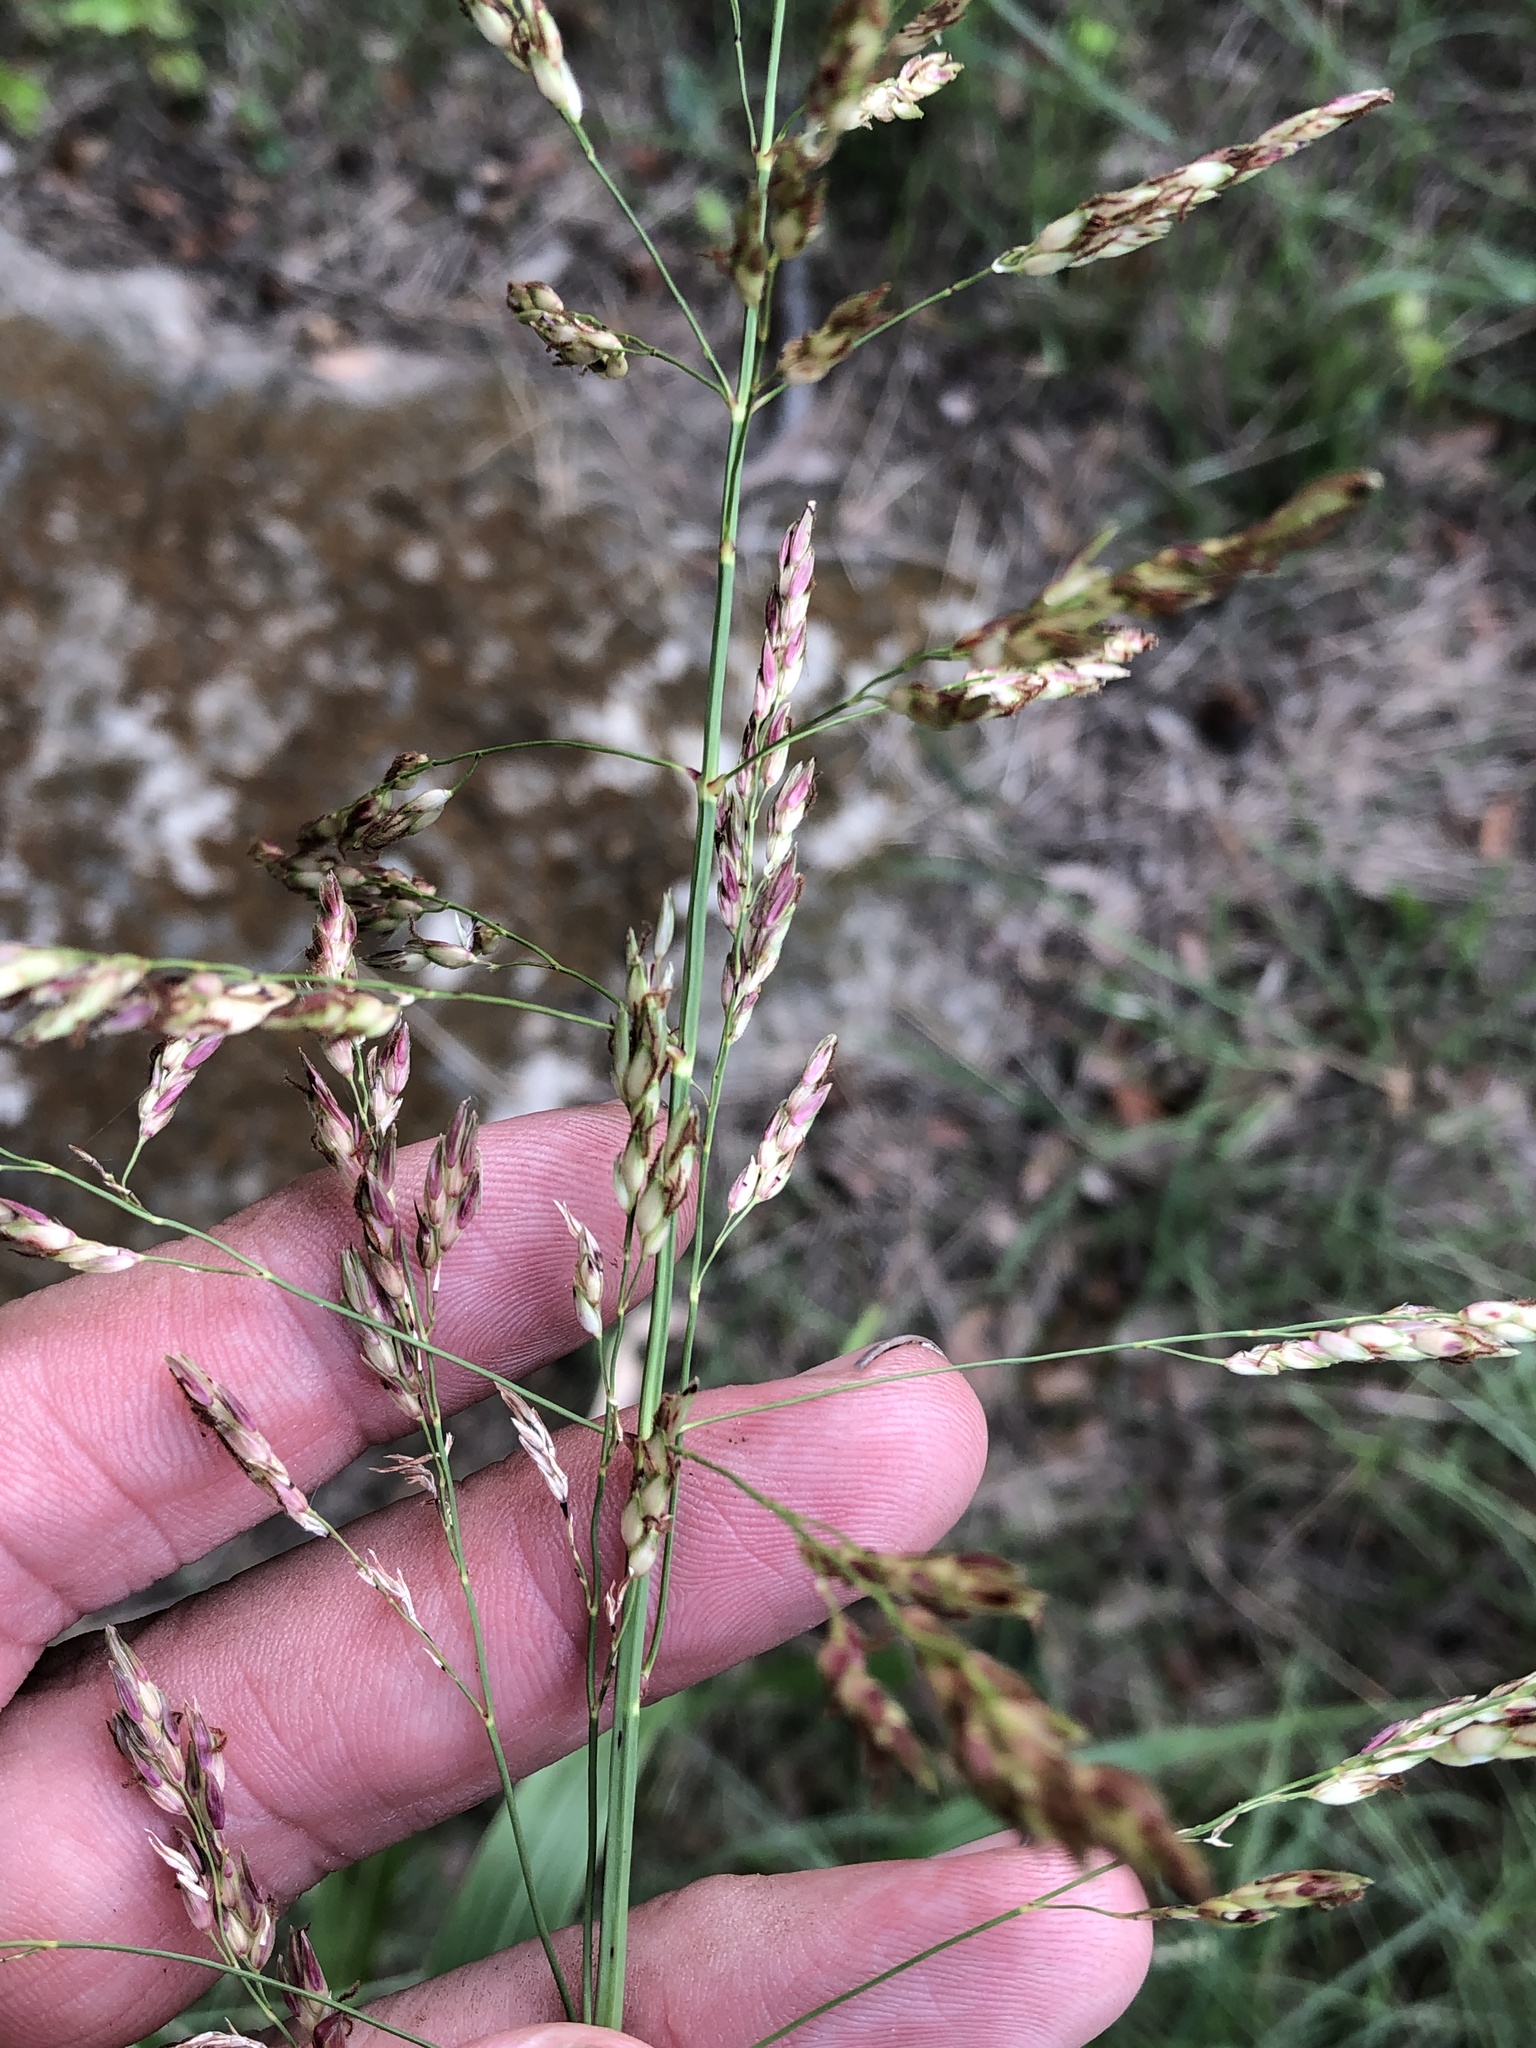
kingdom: Plantae
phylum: Tracheophyta
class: Liliopsida
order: Poales
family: Poaceae
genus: Sorghum
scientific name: Sorghum halepense
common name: Johnson-grass
